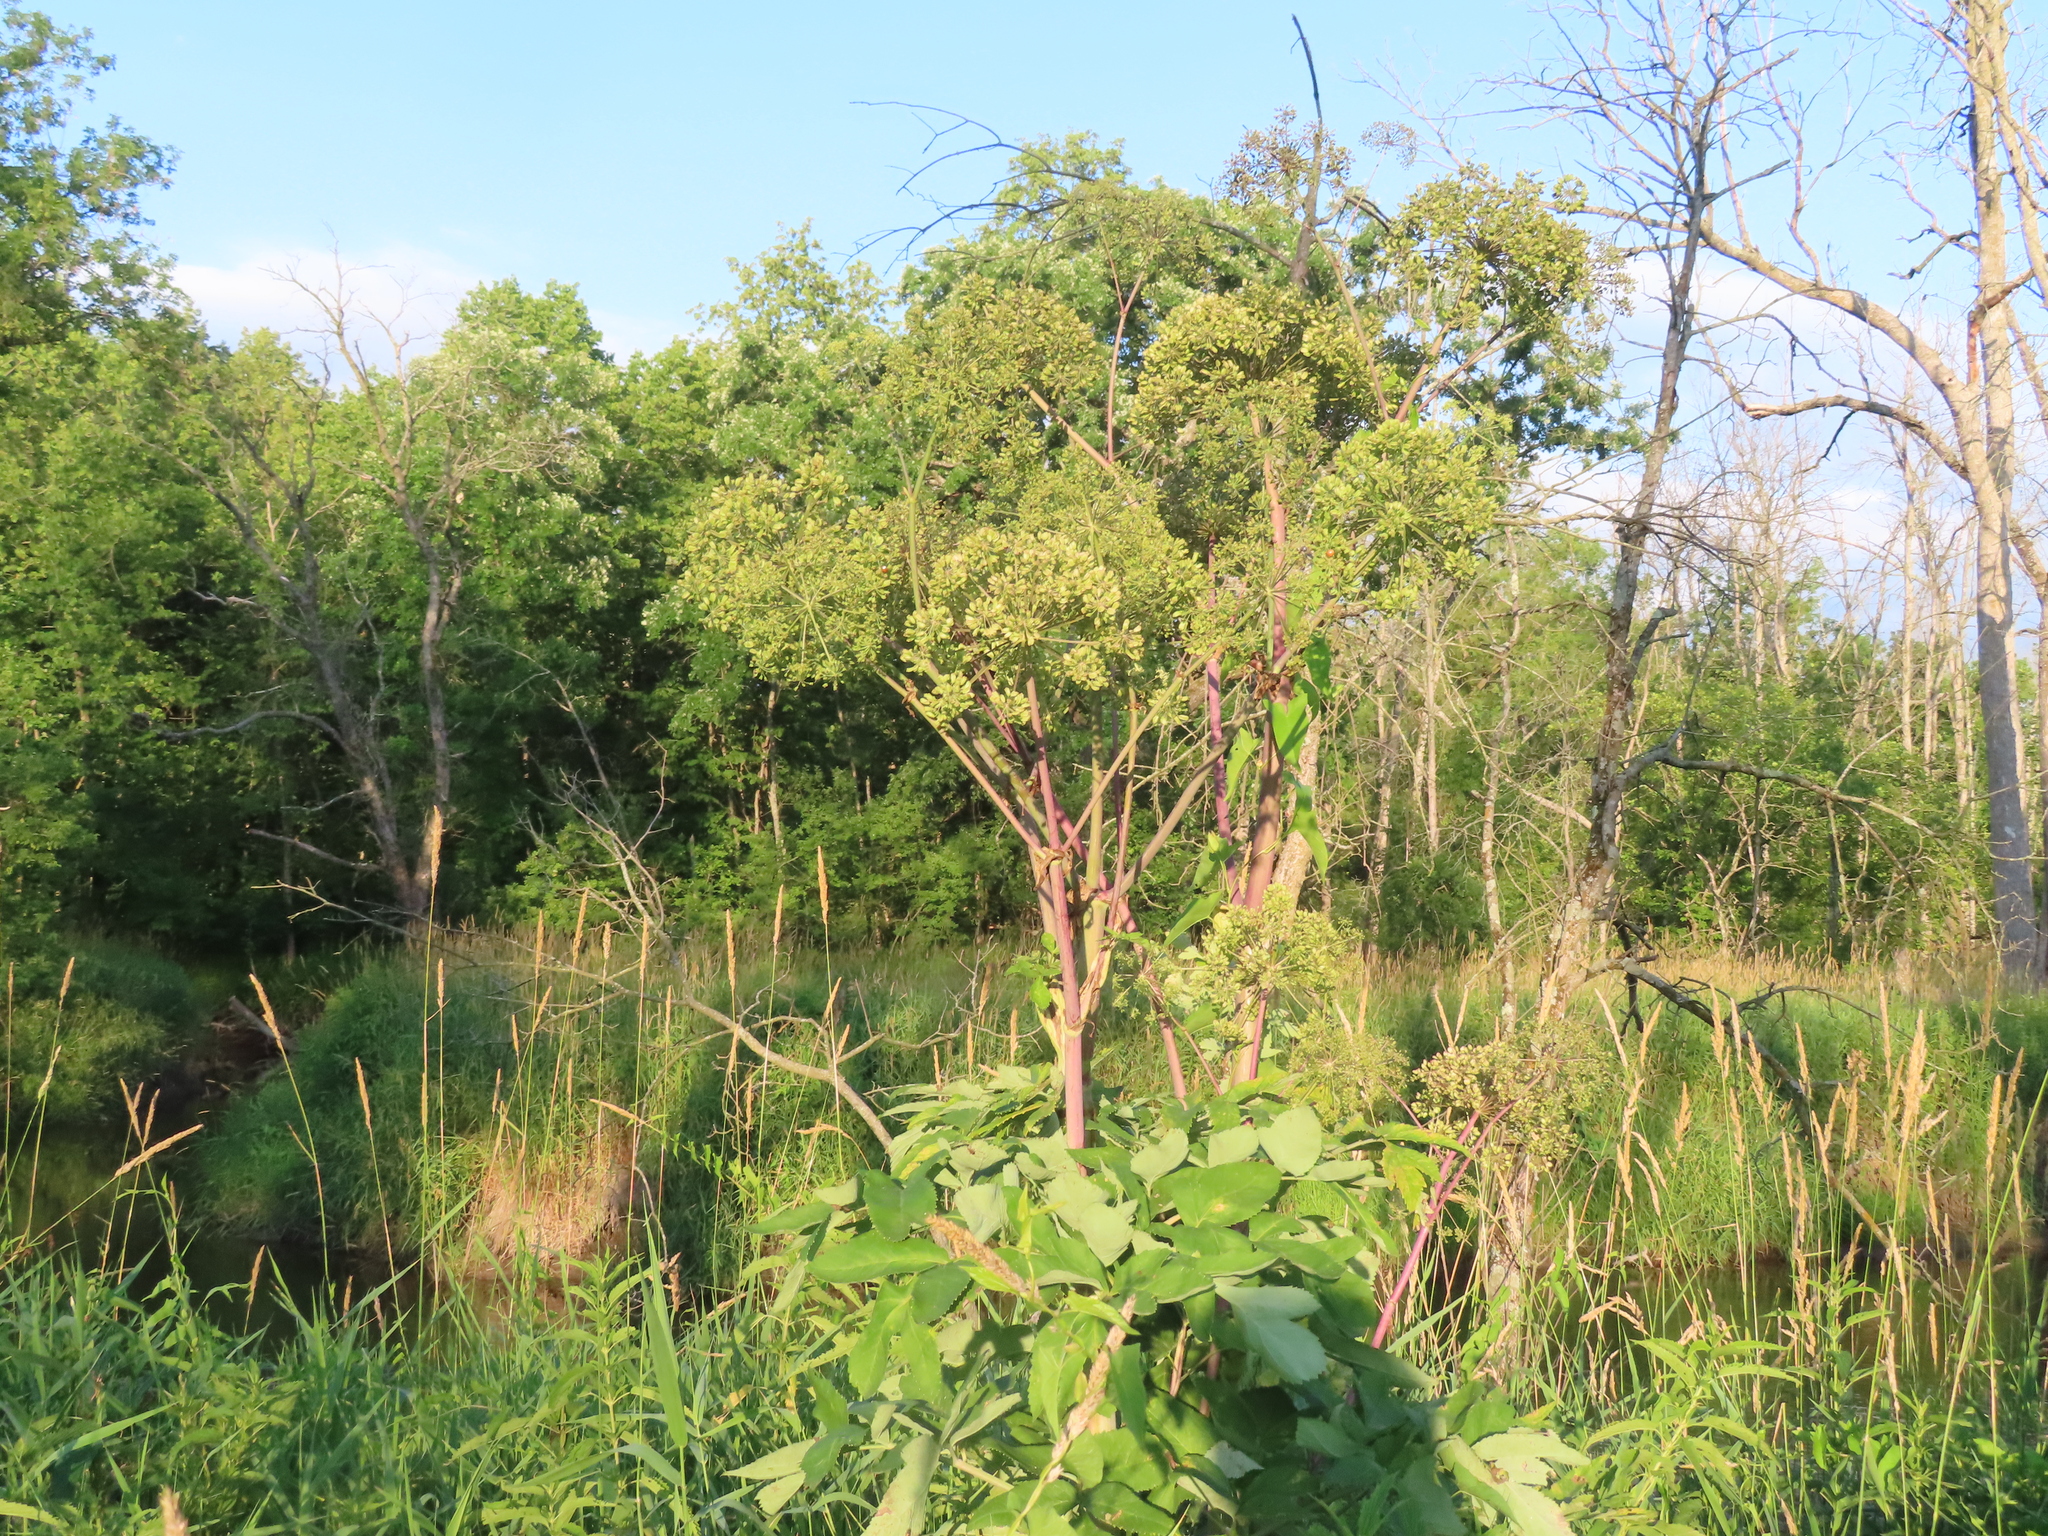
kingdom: Plantae
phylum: Tracheophyta
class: Magnoliopsida
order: Apiales
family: Apiaceae
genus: Angelica
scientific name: Angelica atropurpurea
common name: Great angelica
